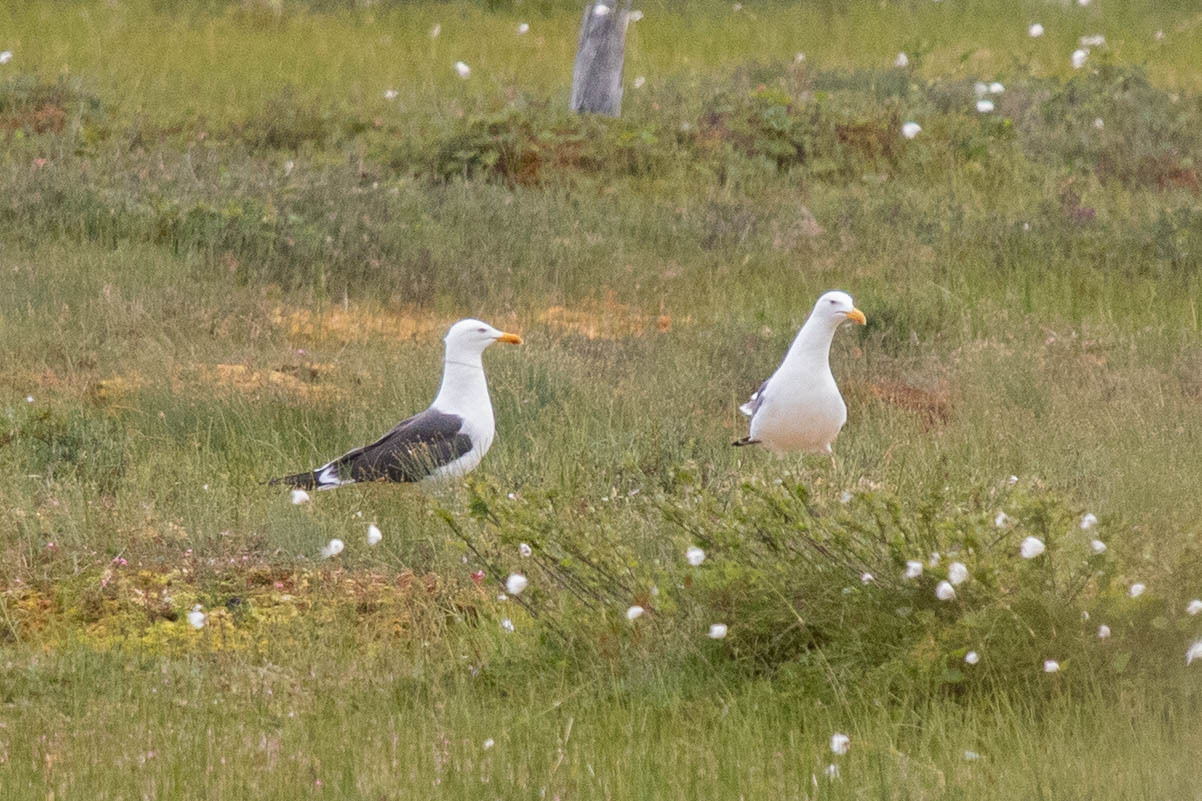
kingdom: Animalia
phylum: Chordata
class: Aves
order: Charadriiformes
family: Laridae
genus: Larus
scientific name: Larus fuscus
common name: Lesser black-backed gull
